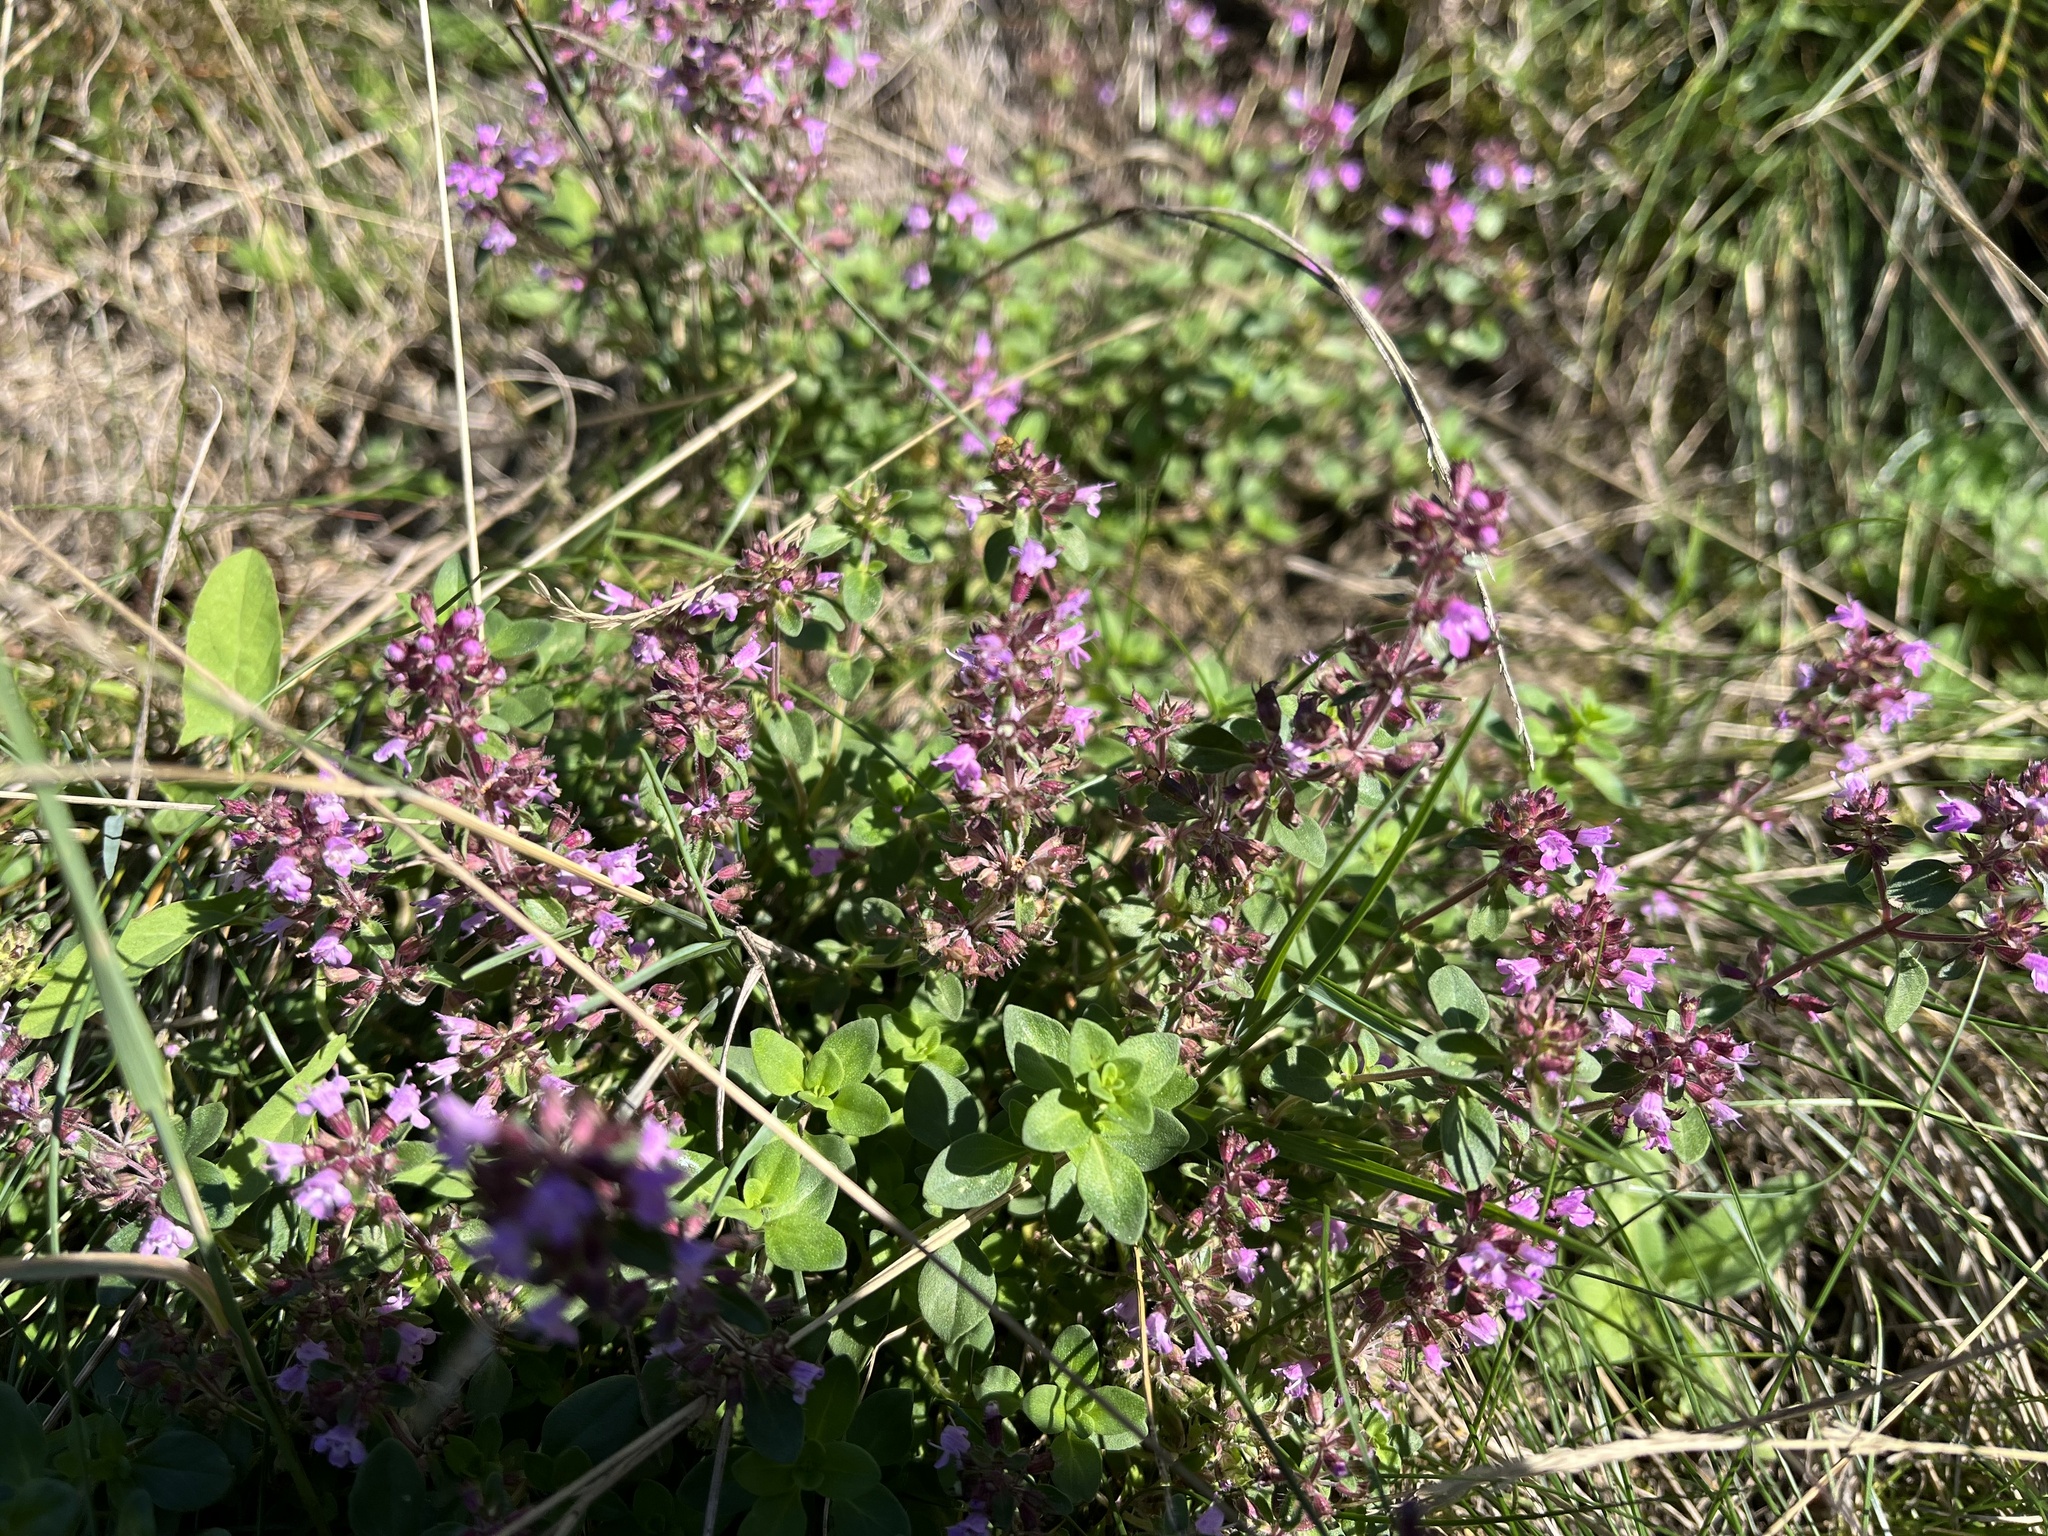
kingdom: Plantae
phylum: Tracheophyta
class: Magnoliopsida
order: Lamiales
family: Lamiaceae
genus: Thymus
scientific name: Thymus pulegioides
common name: Large thyme
